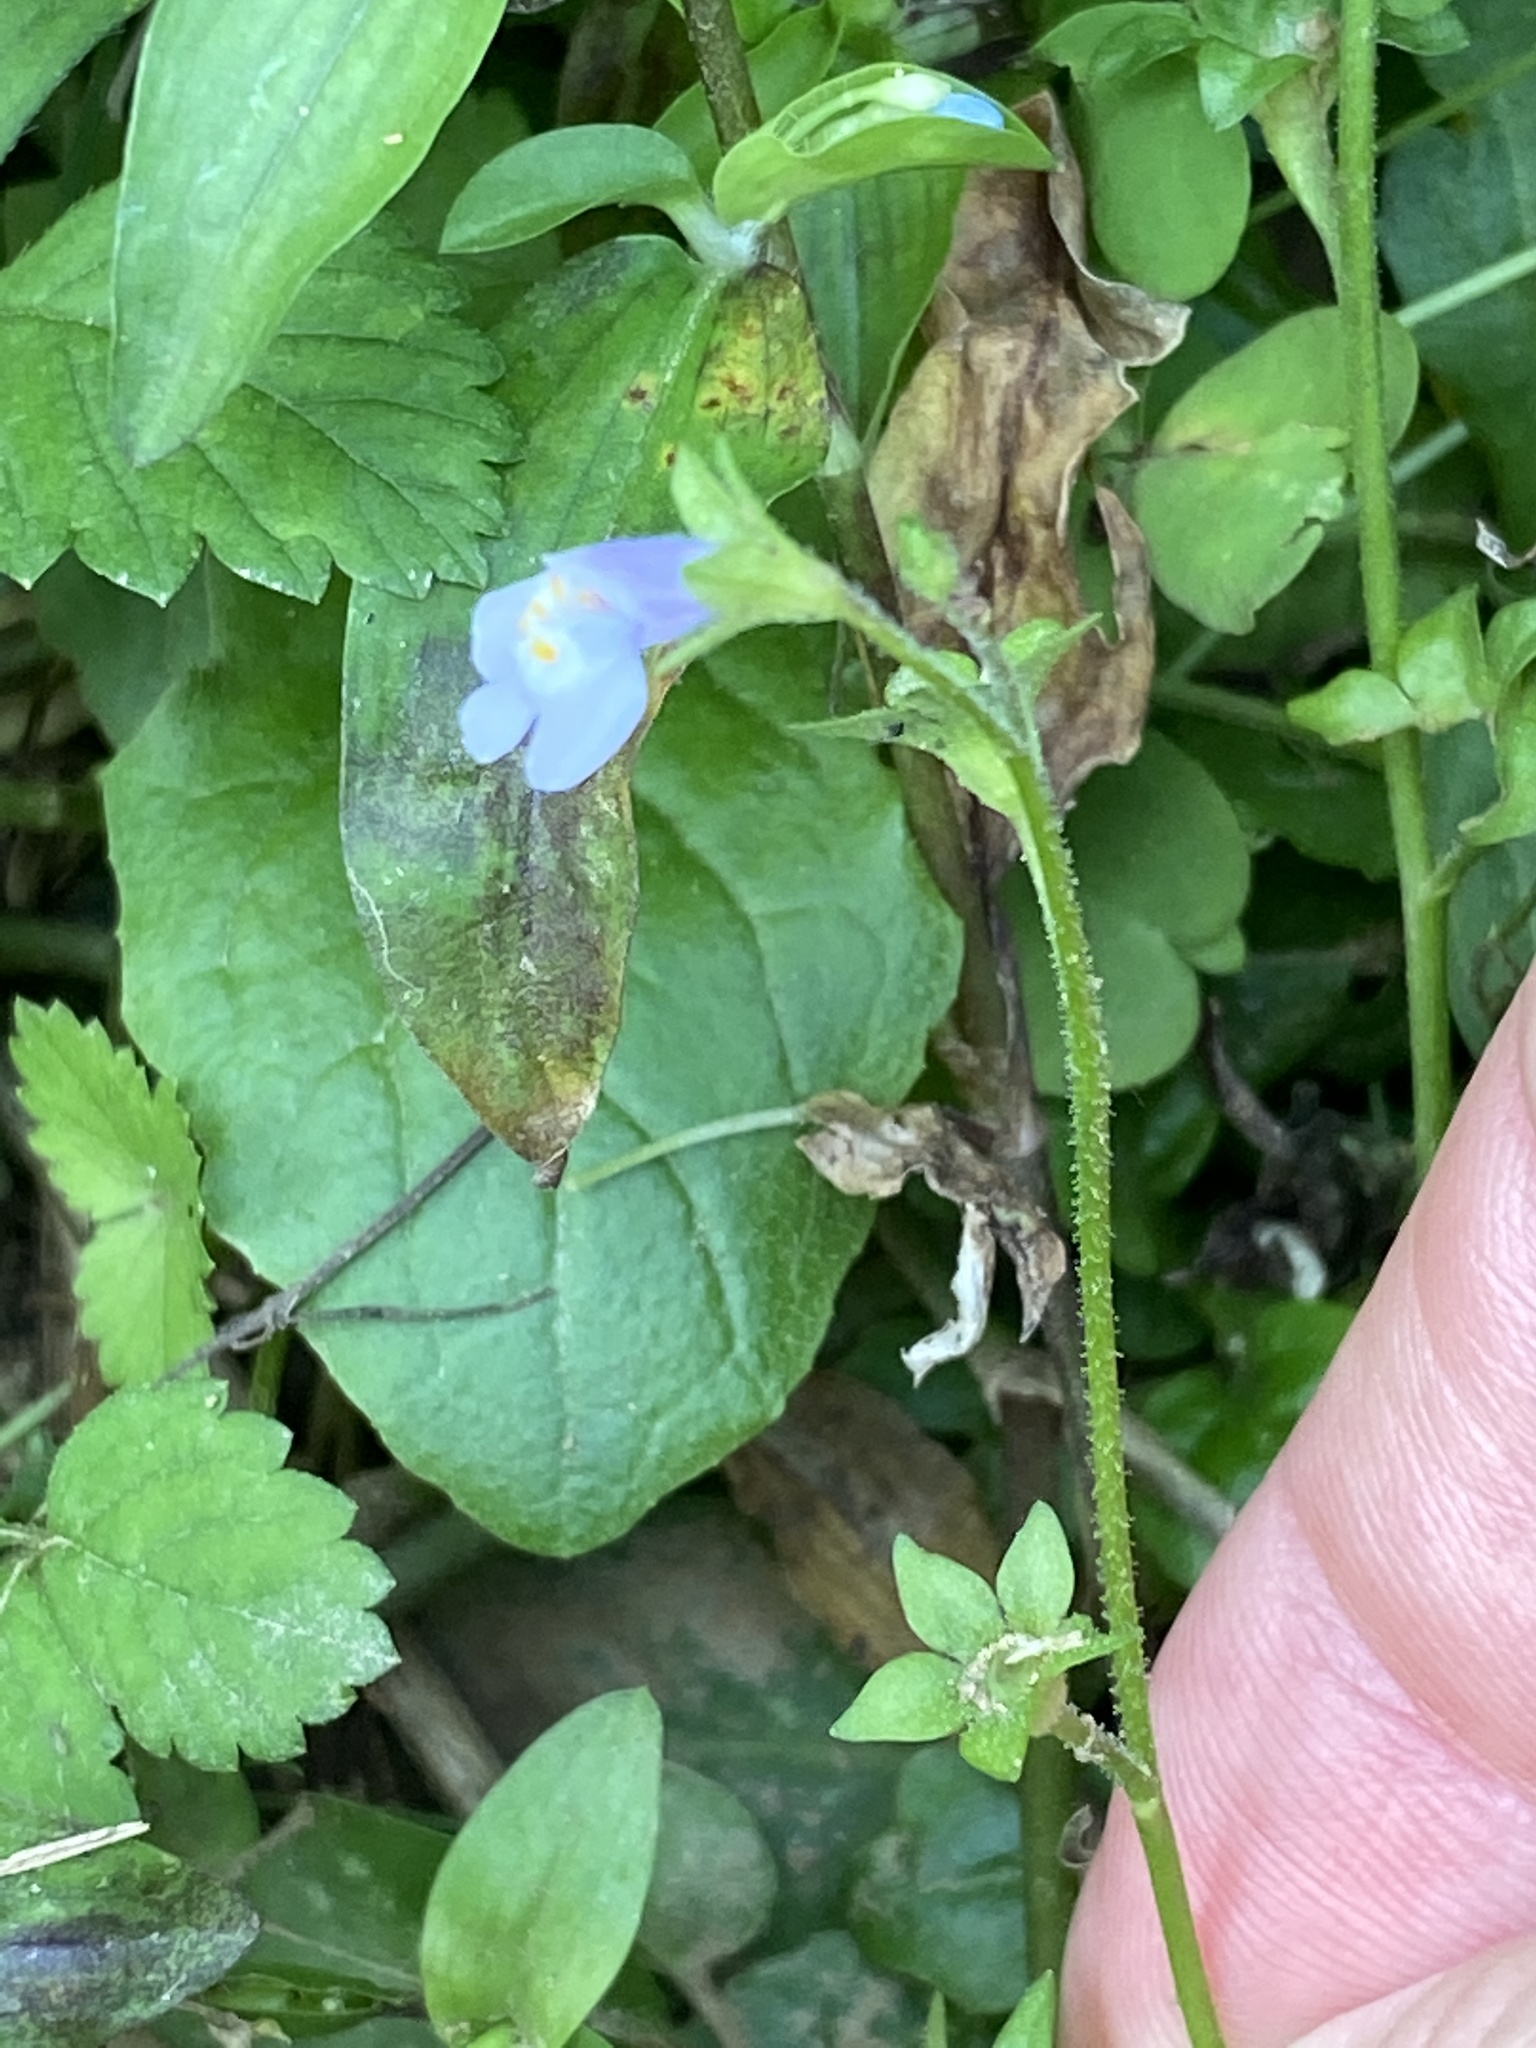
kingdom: Plantae
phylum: Tracheophyta
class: Magnoliopsida
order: Lamiales
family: Mazaceae
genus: Mazus
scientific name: Mazus pumilus
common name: Japanese mazus
